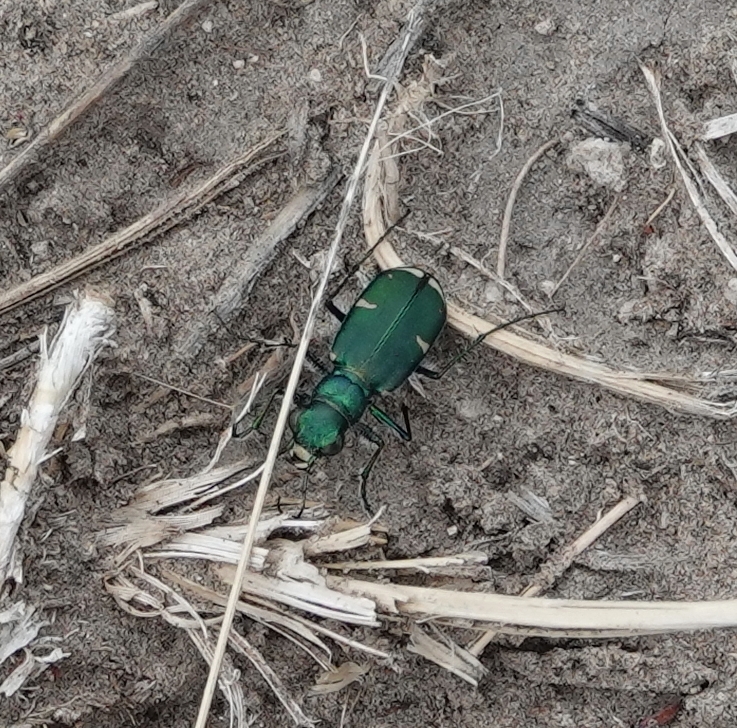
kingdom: Animalia
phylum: Arthropoda
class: Insecta
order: Coleoptera
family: Carabidae
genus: Cicindela
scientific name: Cicindela denverensis
